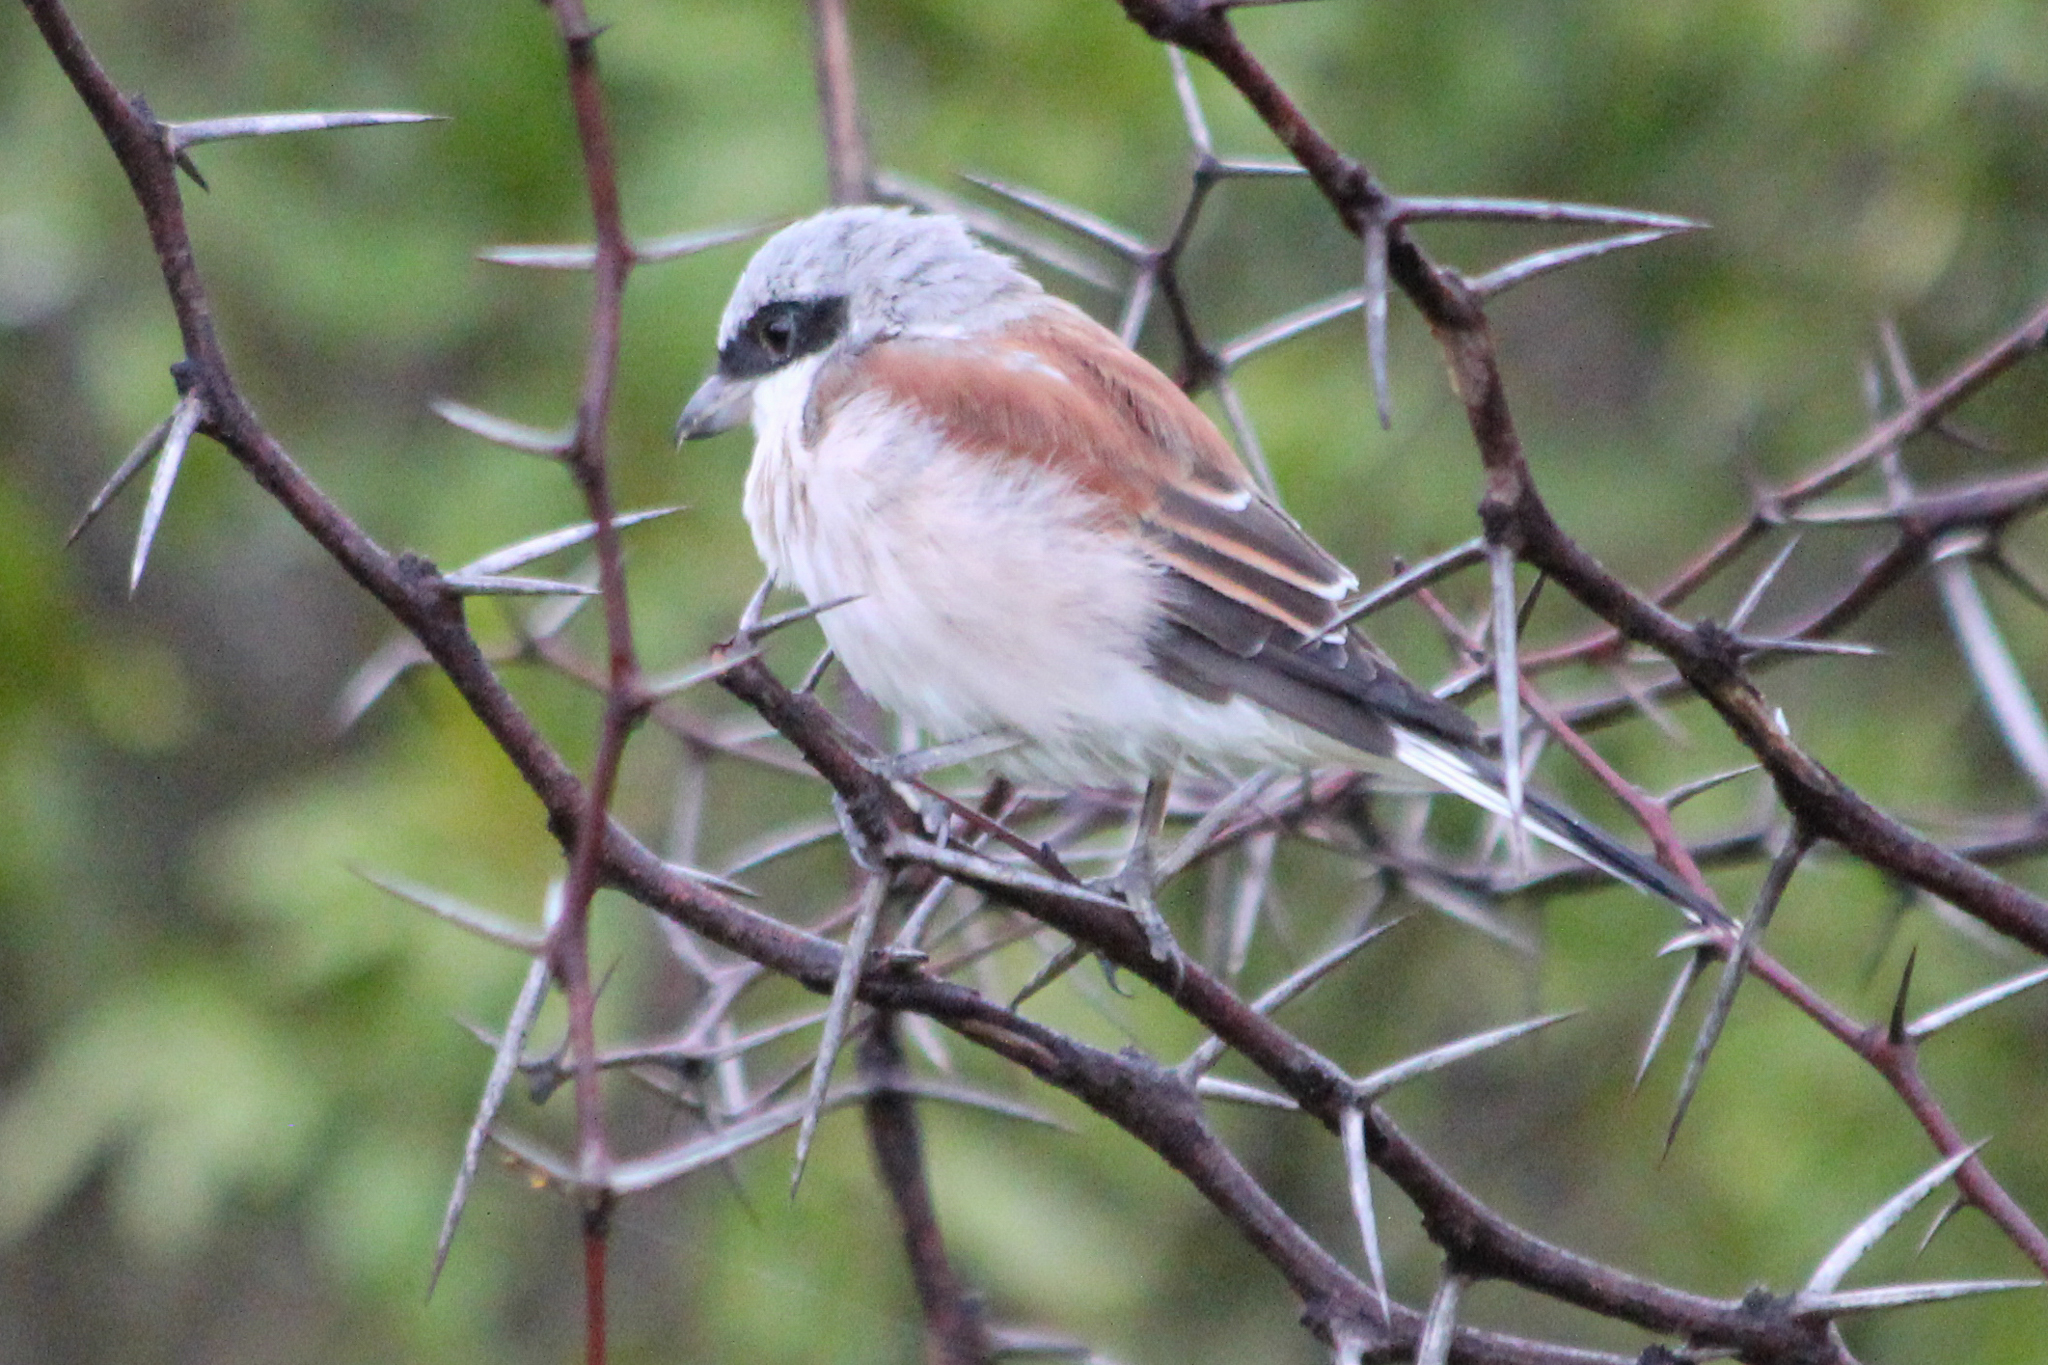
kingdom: Animalia
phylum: Chordata
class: Aves
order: Passeriformes
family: Laniidae
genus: Lanius
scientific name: Lanius collurio
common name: Red-backed shrike
